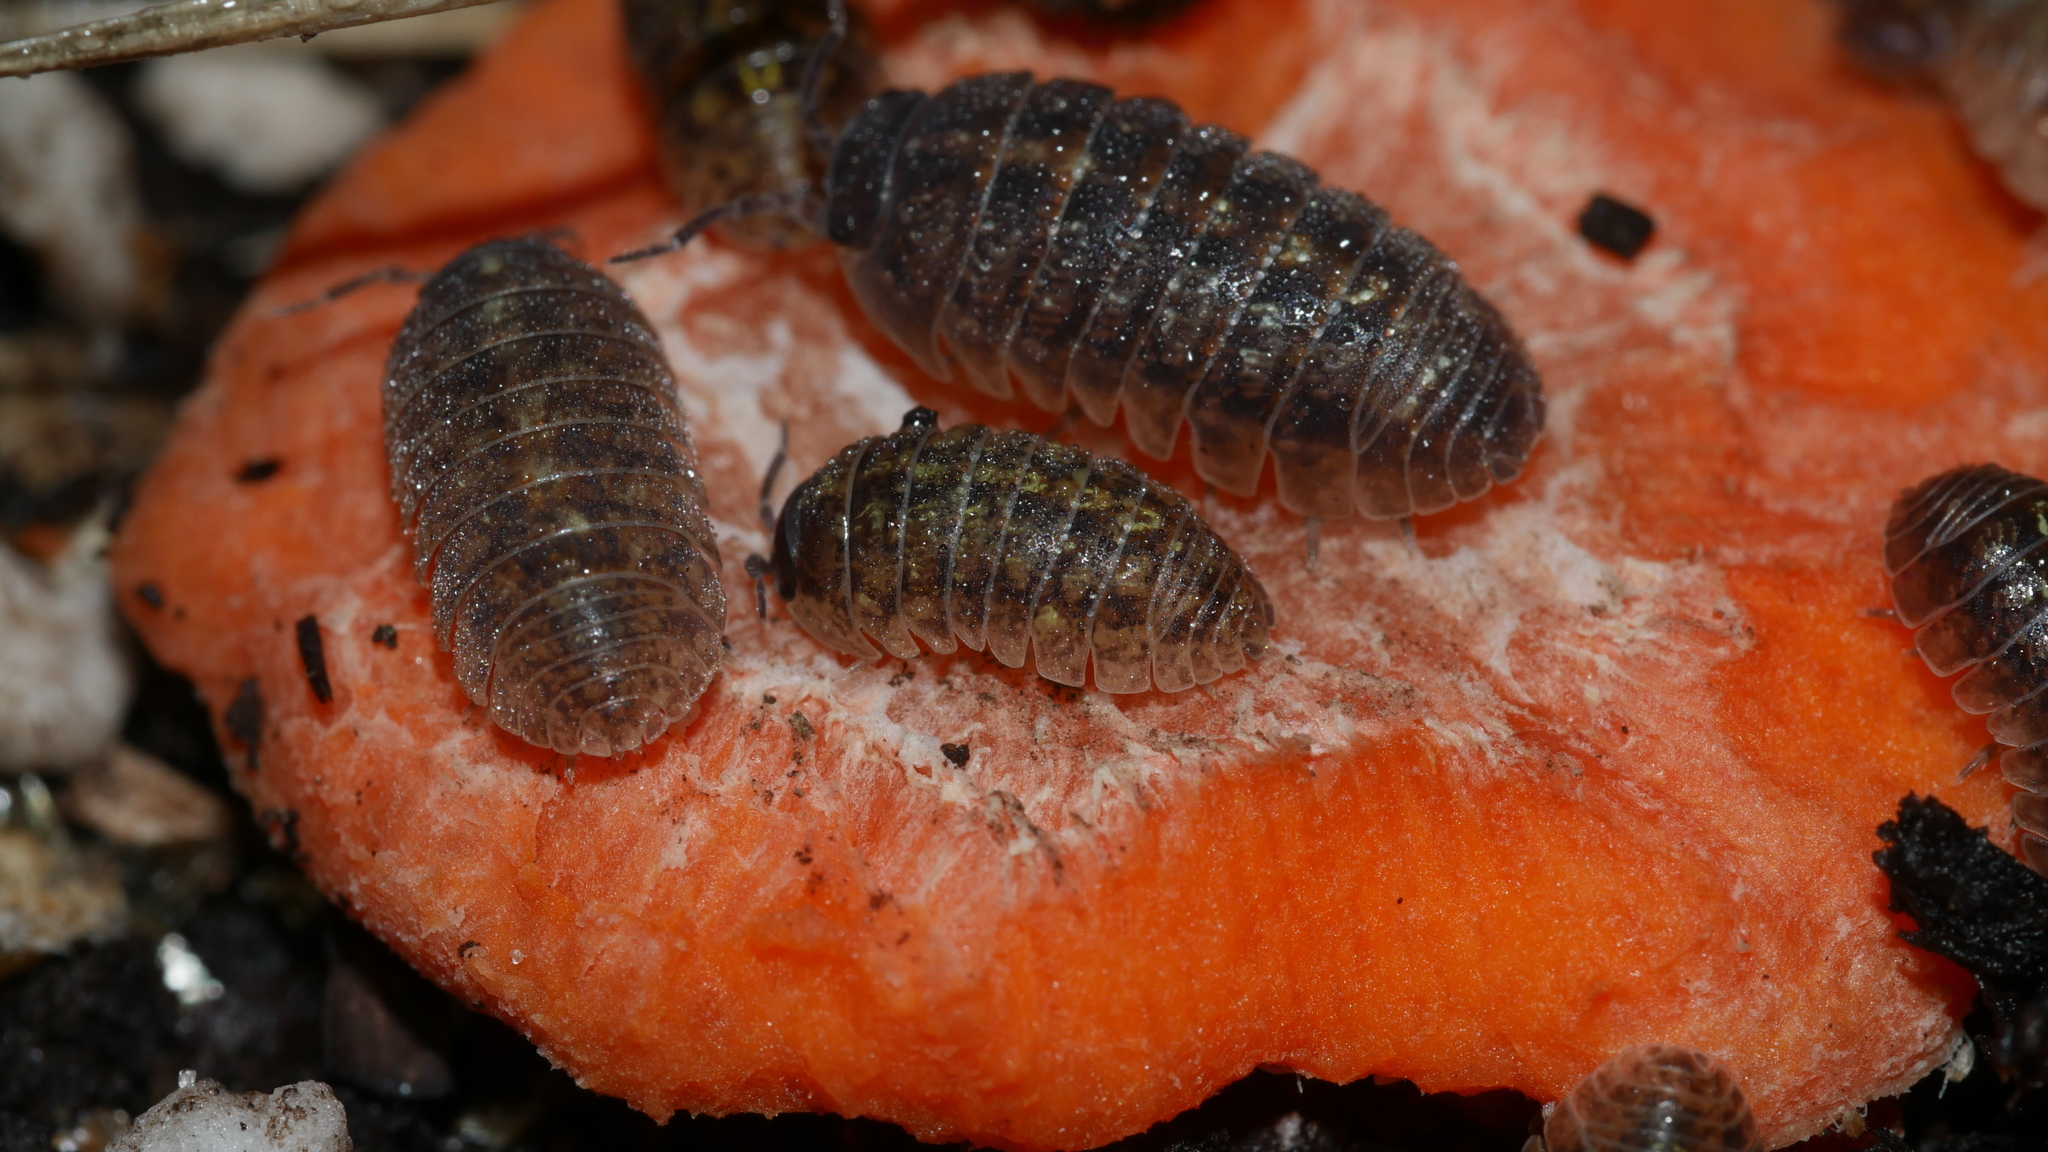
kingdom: Animalia
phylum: Arthropoda
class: Malacostraca
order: Isopoda
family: Armadillidiidae
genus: Armadillidium
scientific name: Armadillidium vulgare
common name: Common pill woodlouse
